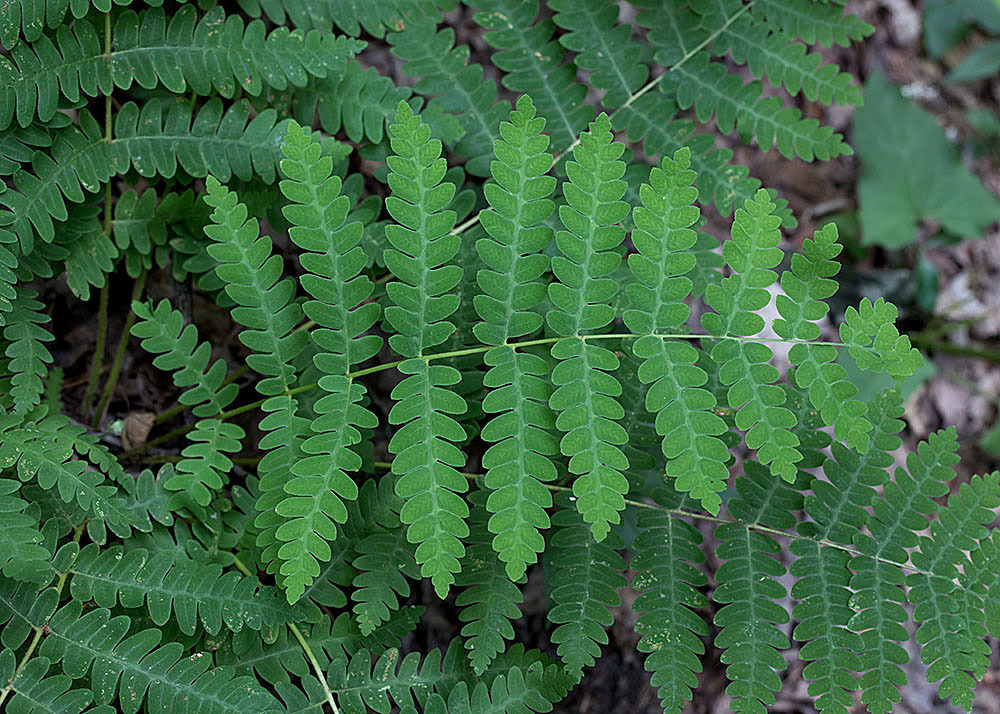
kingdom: Plantae
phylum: Tracheophyta
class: Polypodiopsida
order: Osmundales
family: Osmundaceae
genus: Claytosmunda
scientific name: Claytosmunda claytoniana
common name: Clayton's fern
